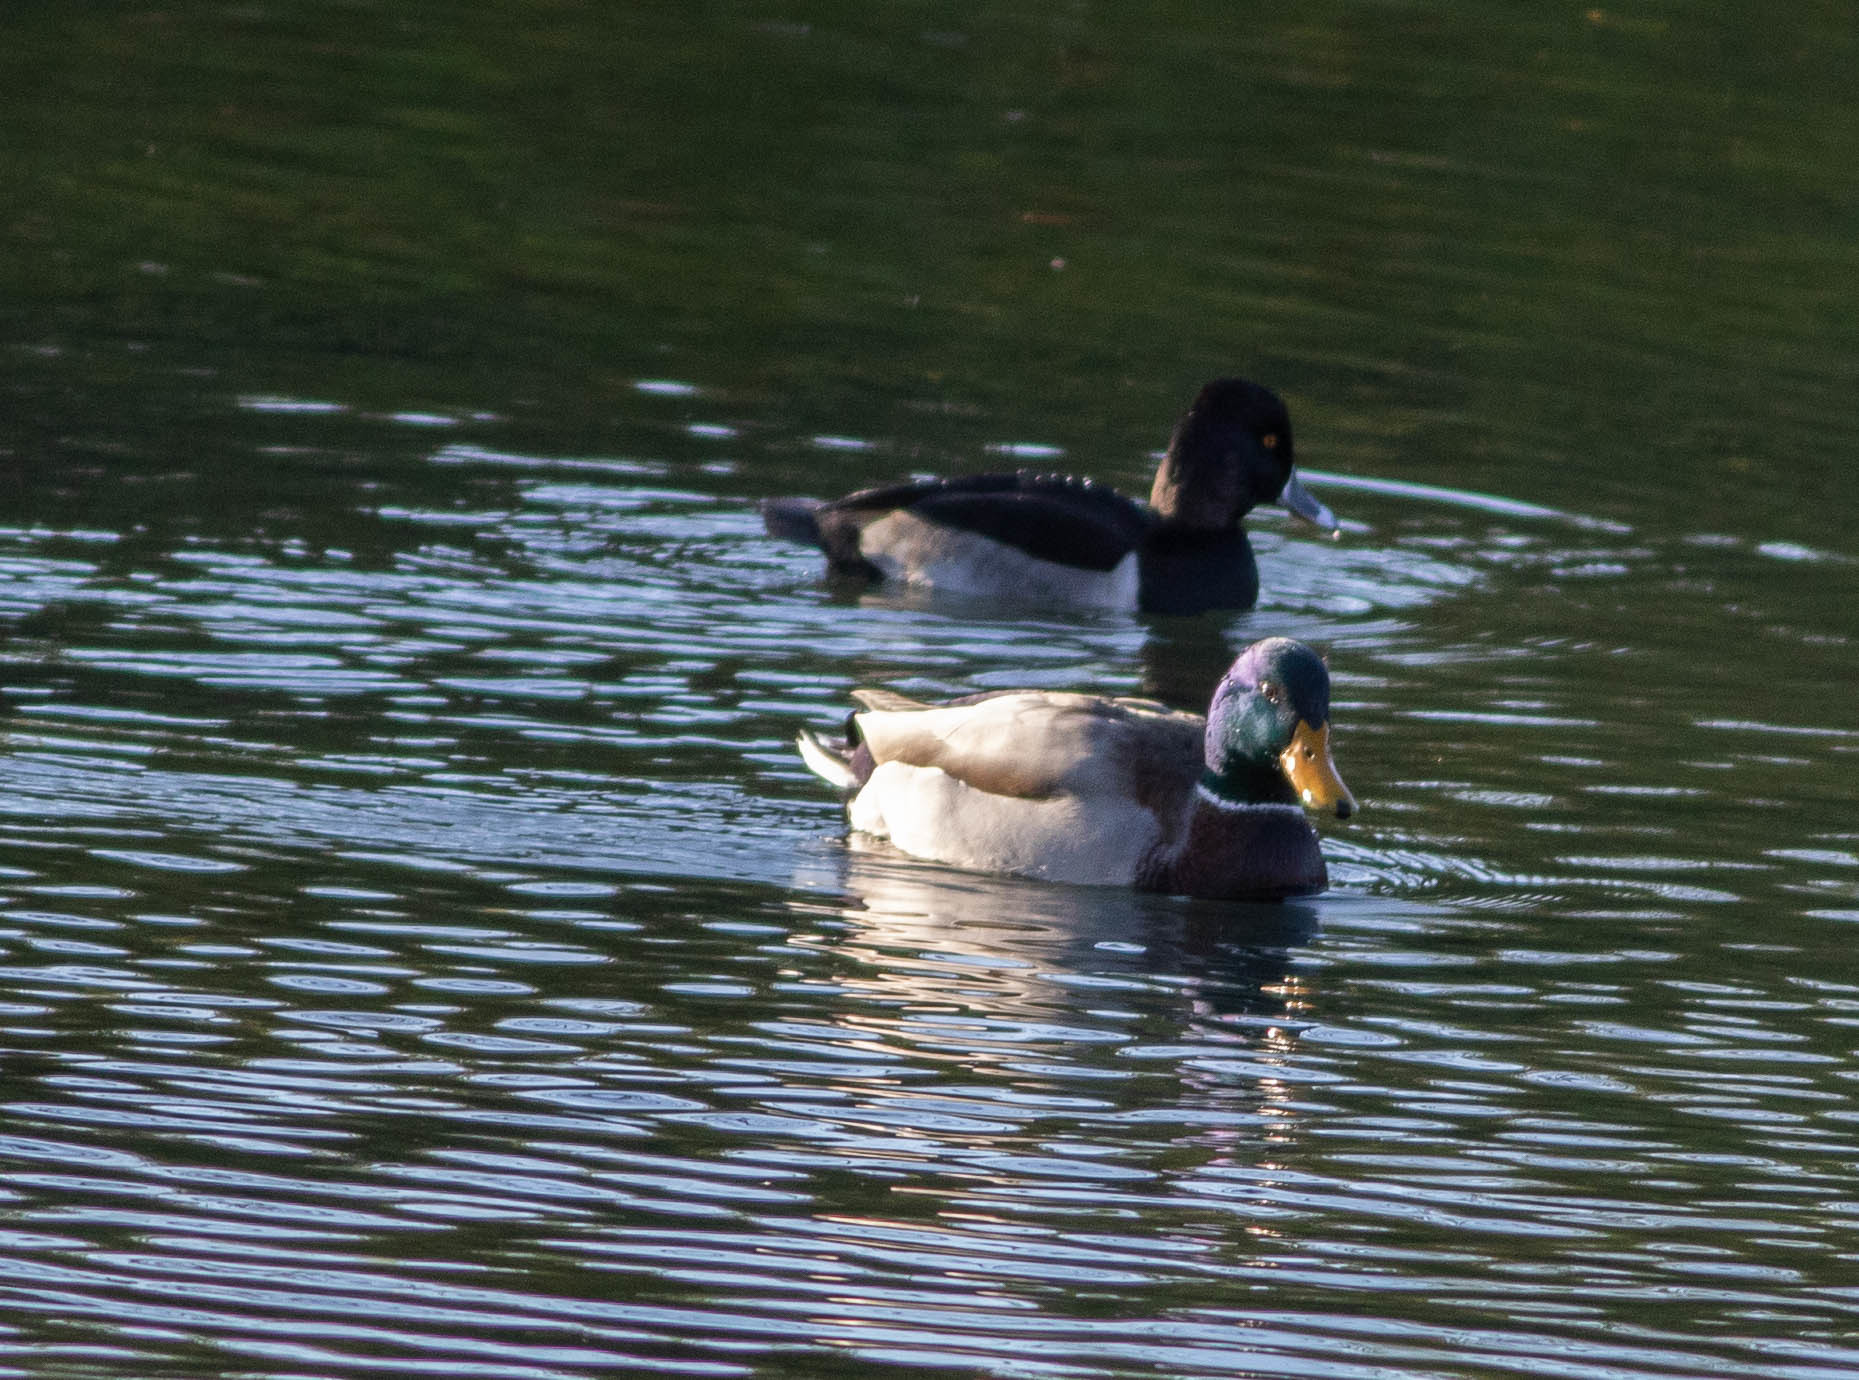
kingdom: Animalia
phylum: Chordata
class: Aves
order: Anseriformes
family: Anatidae
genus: Aythya
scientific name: Aythya collaris
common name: Ring-necked duck
